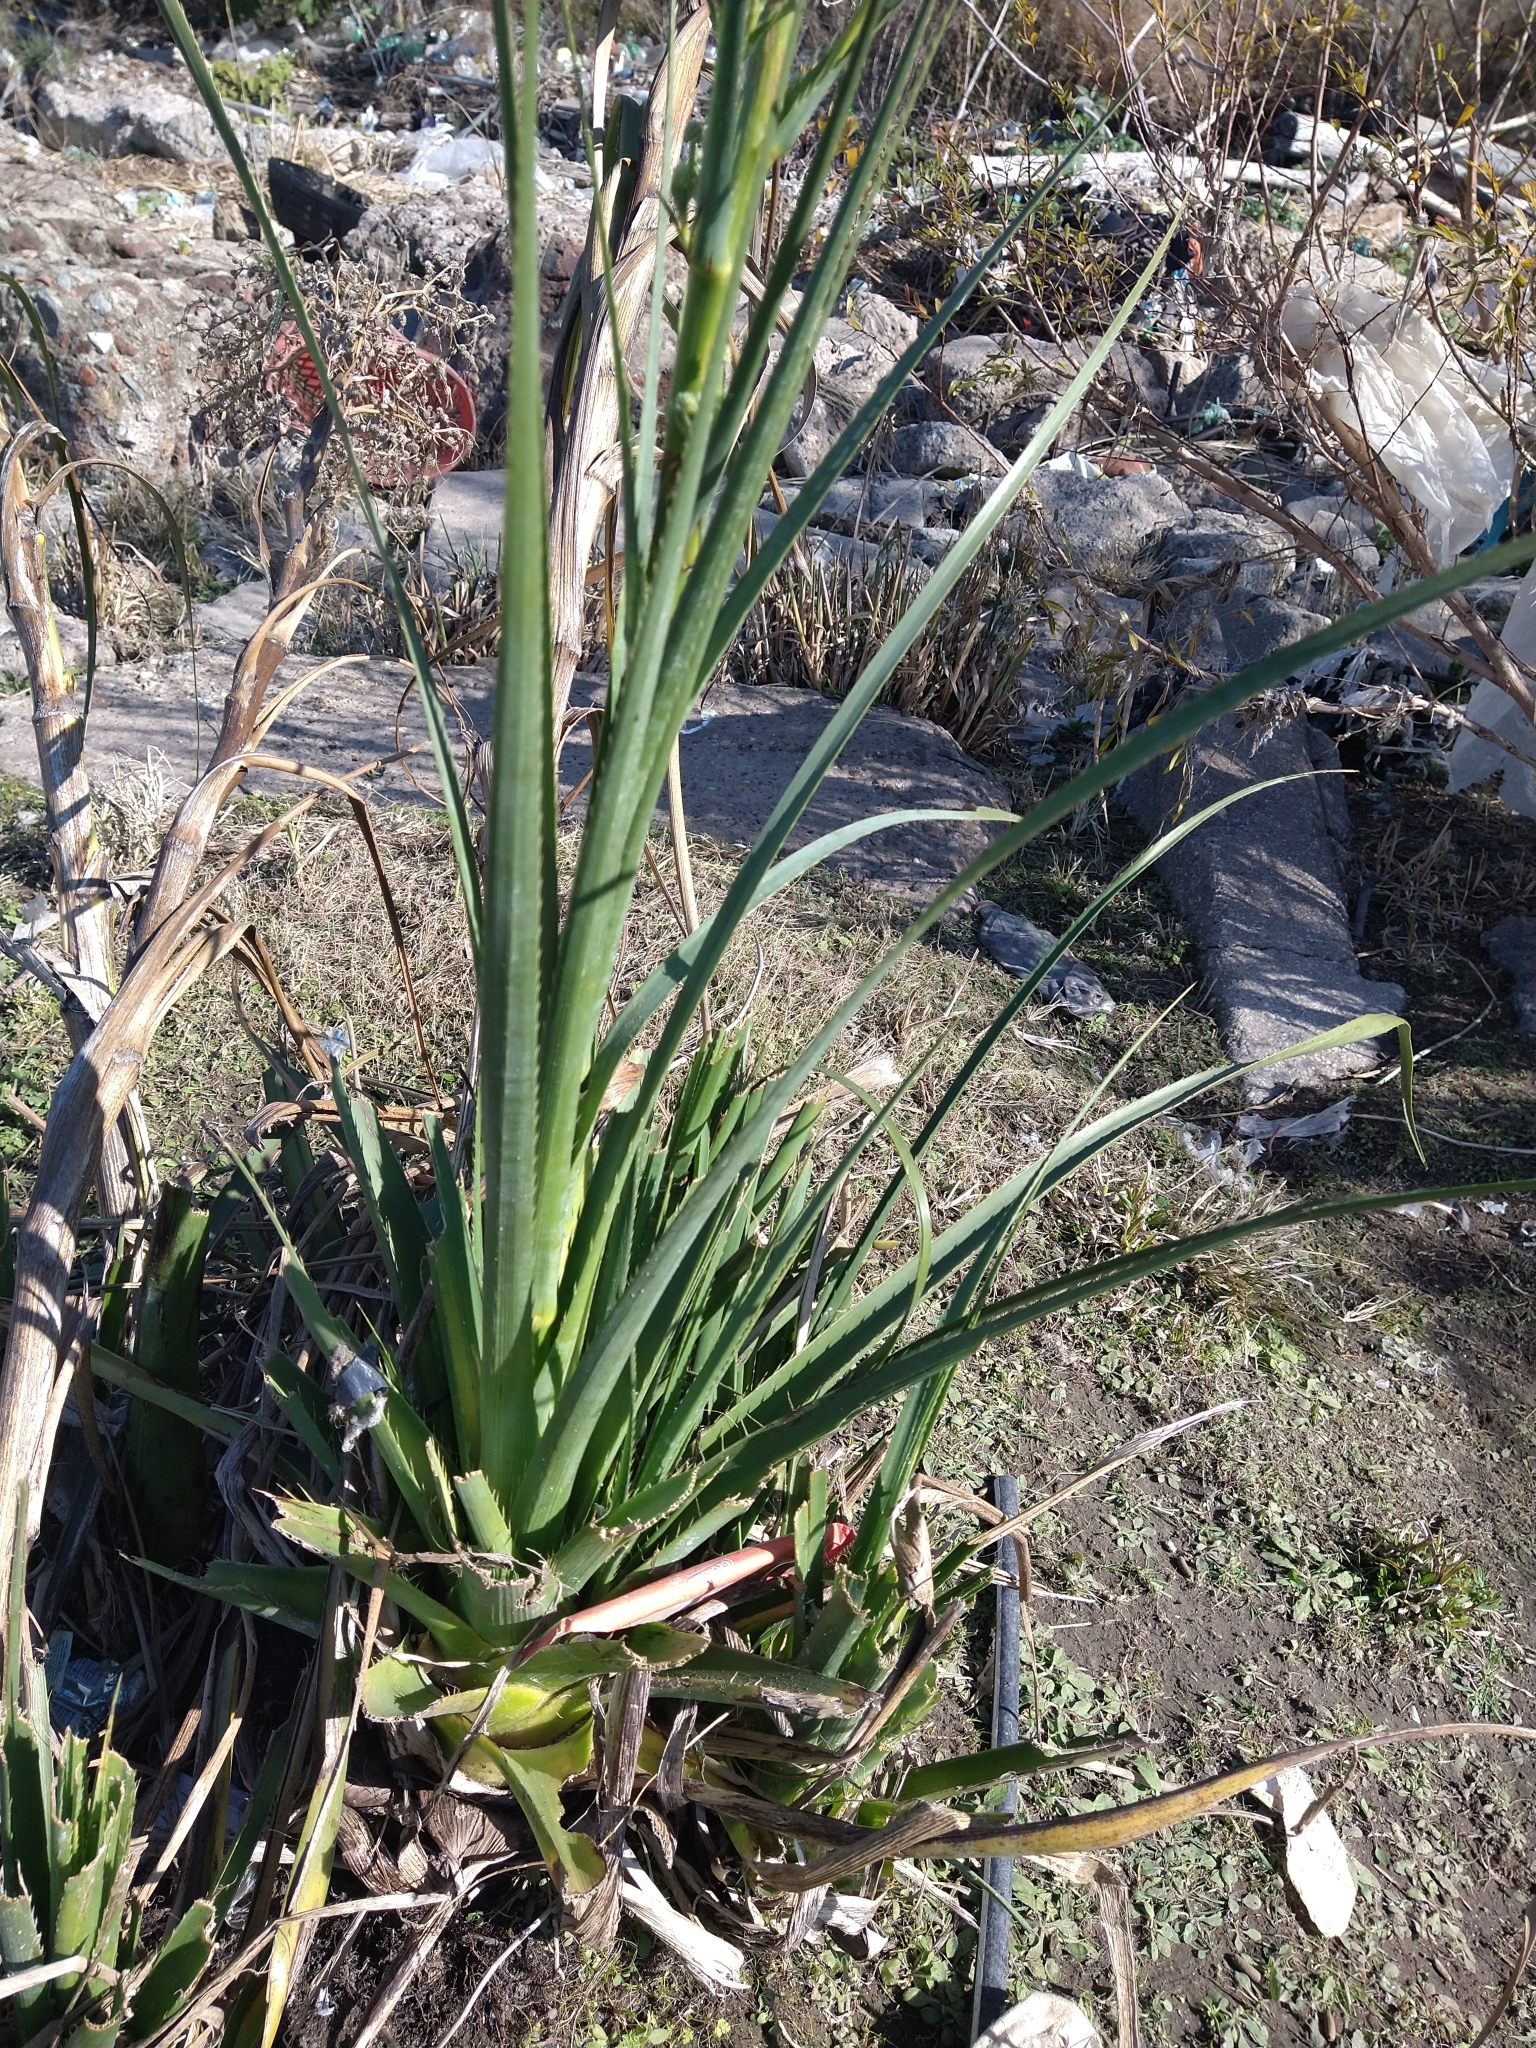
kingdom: Plantae
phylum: Tracheophyta
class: Magnoliopsida
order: Apiales
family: Apiaceae
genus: Eryngium
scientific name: Eryngium pandanifolium
